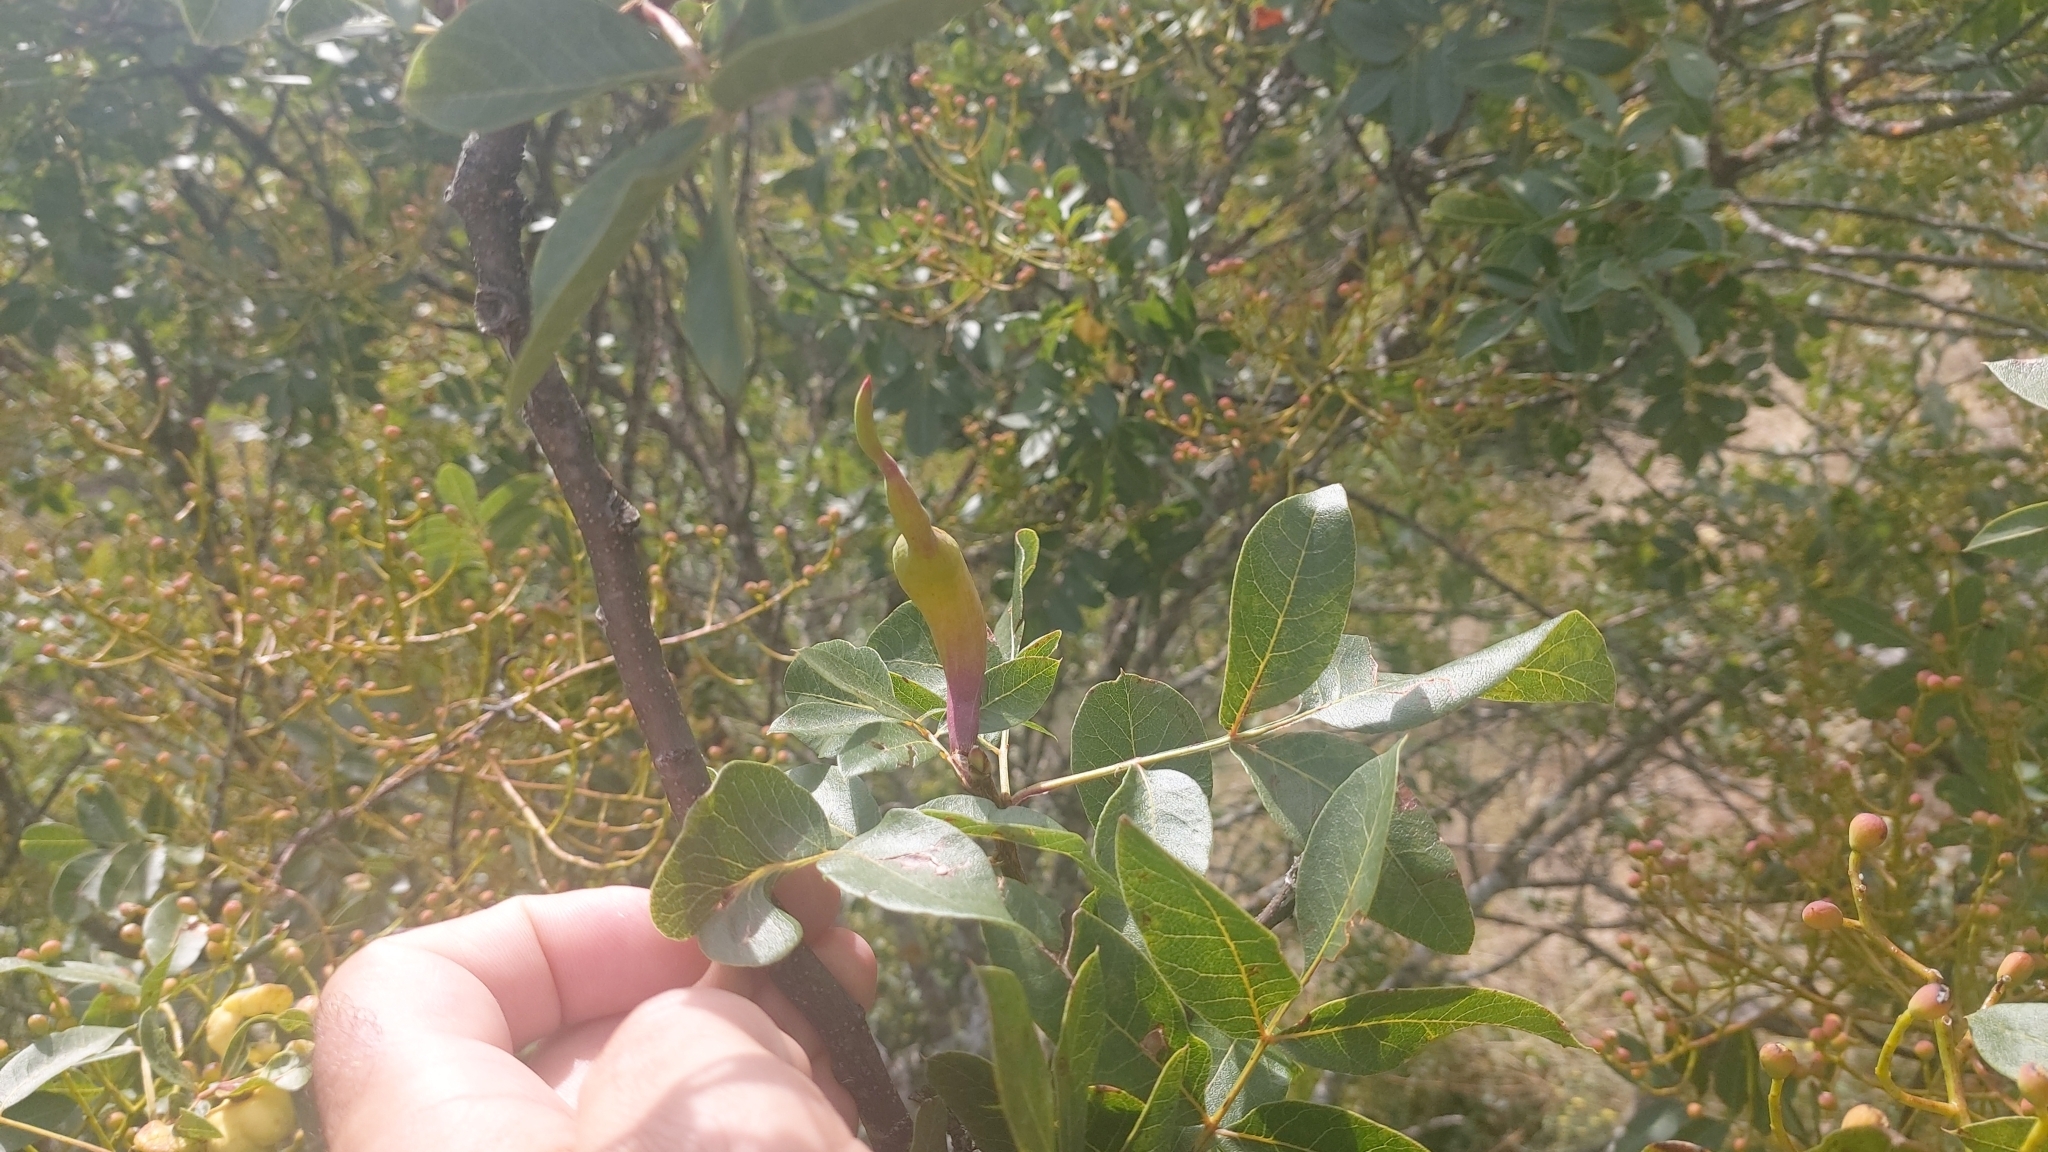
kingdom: Animalia
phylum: Arthropoda
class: Insecta
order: Hemiptera
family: Aphididae
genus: Baizongia
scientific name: Baizongia pistaciae
